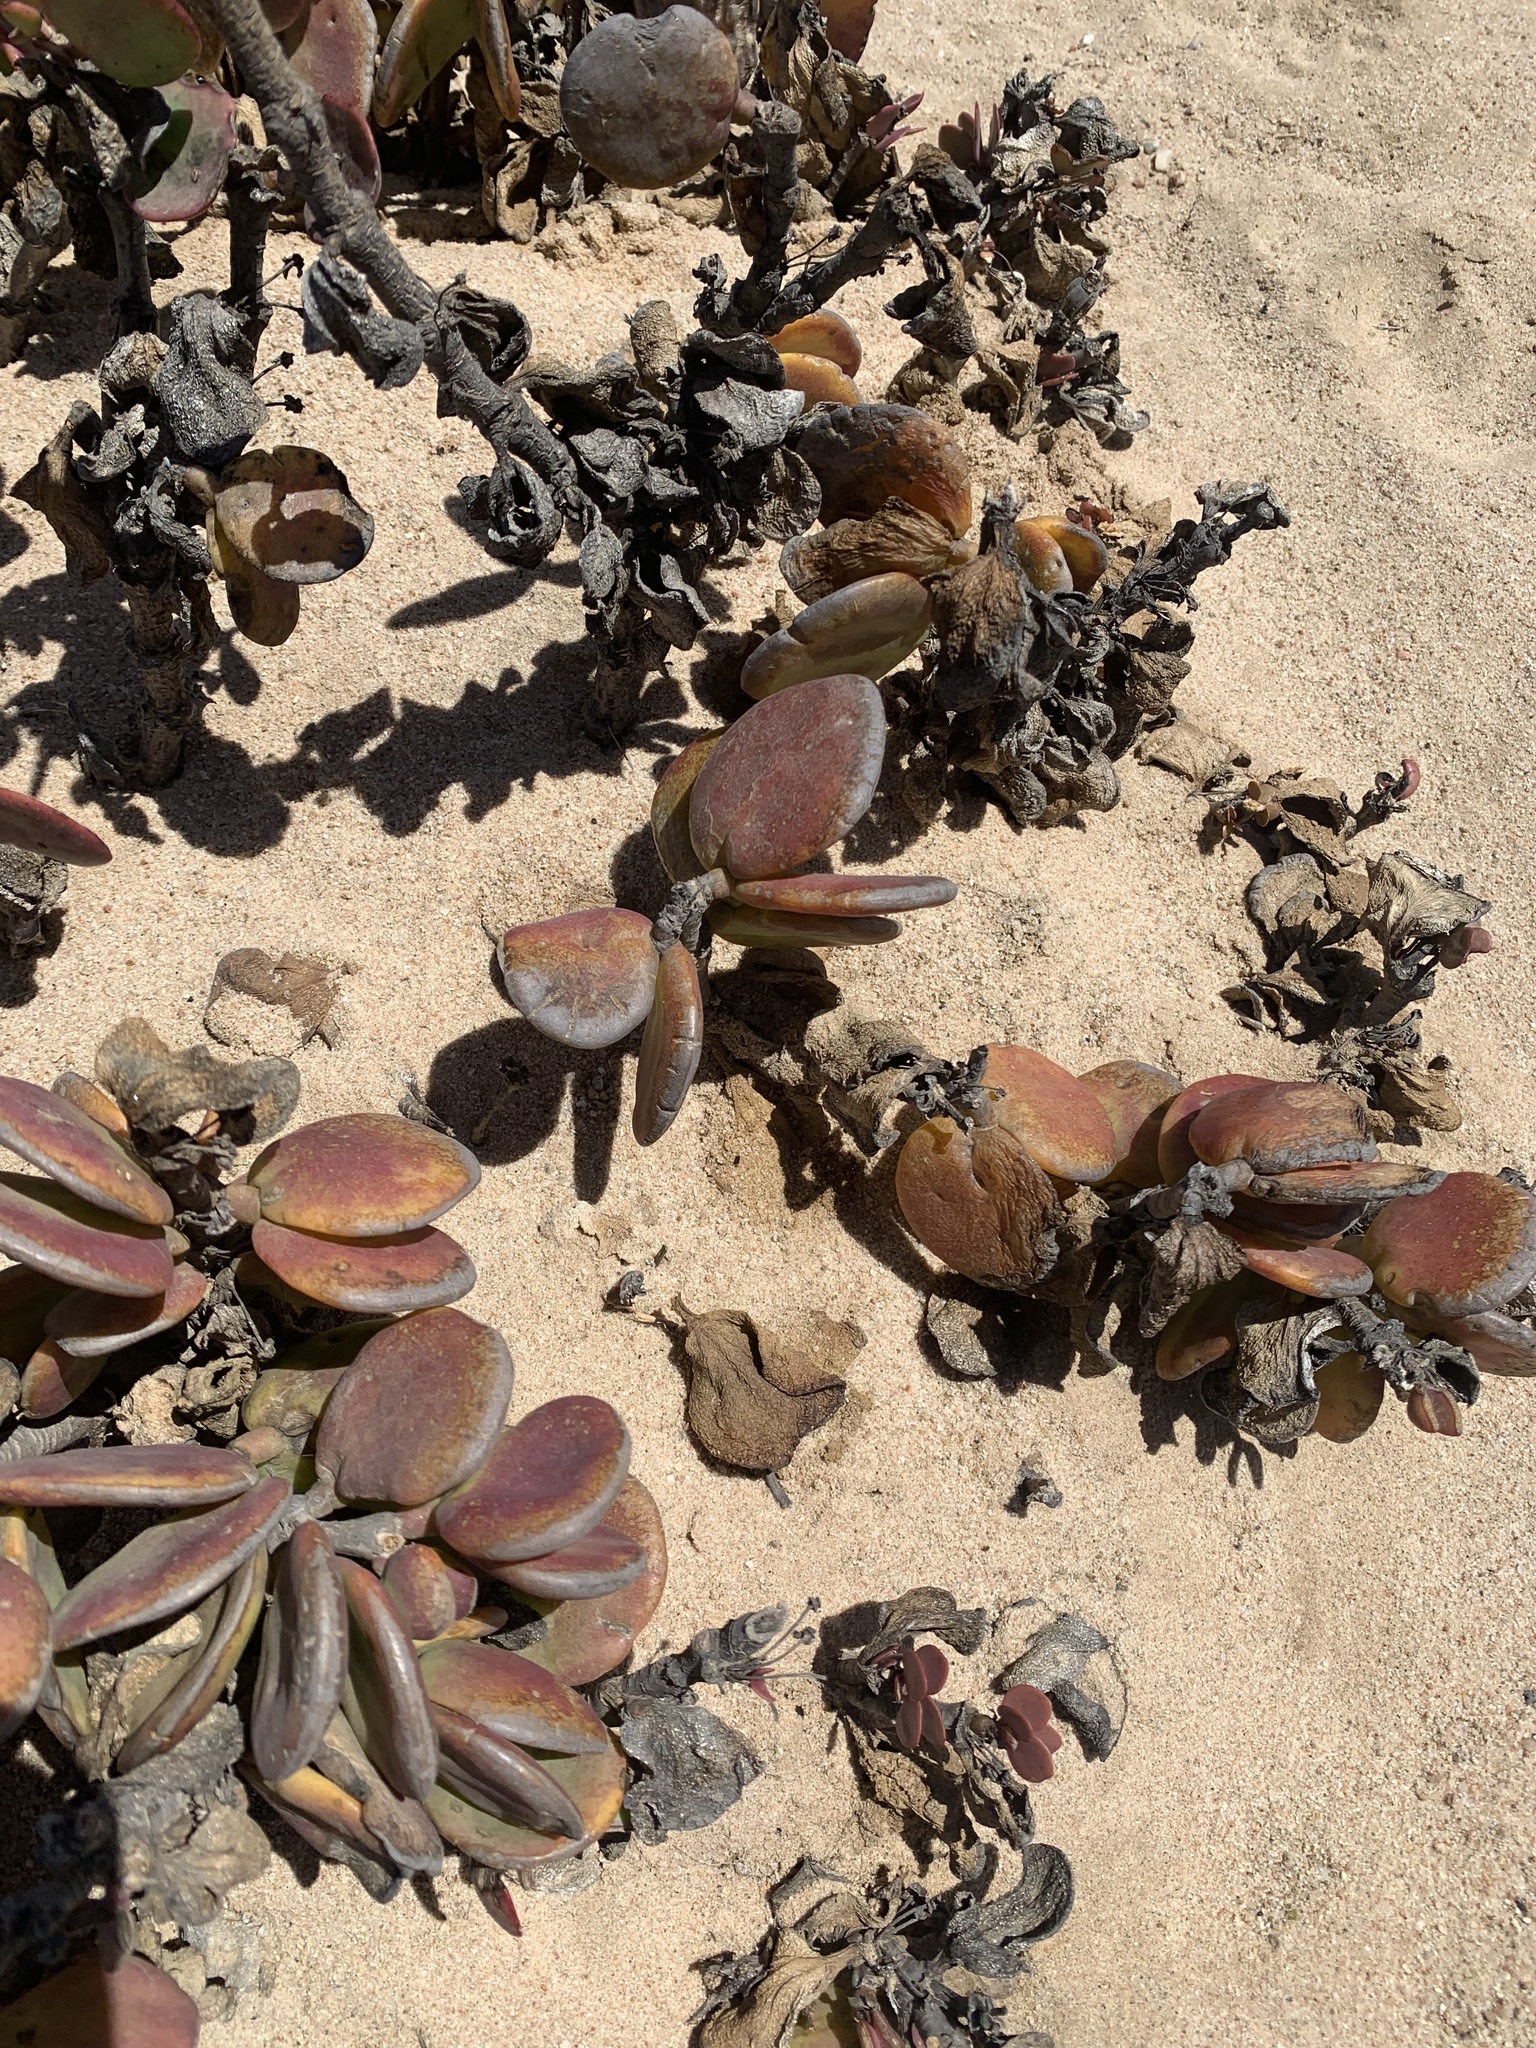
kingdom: Plantae
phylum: Tracheophyta
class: Magnoliopsida
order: Zygophyllales
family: Zygophyllaceae
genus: Tetraena
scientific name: Tetraena stapfii
